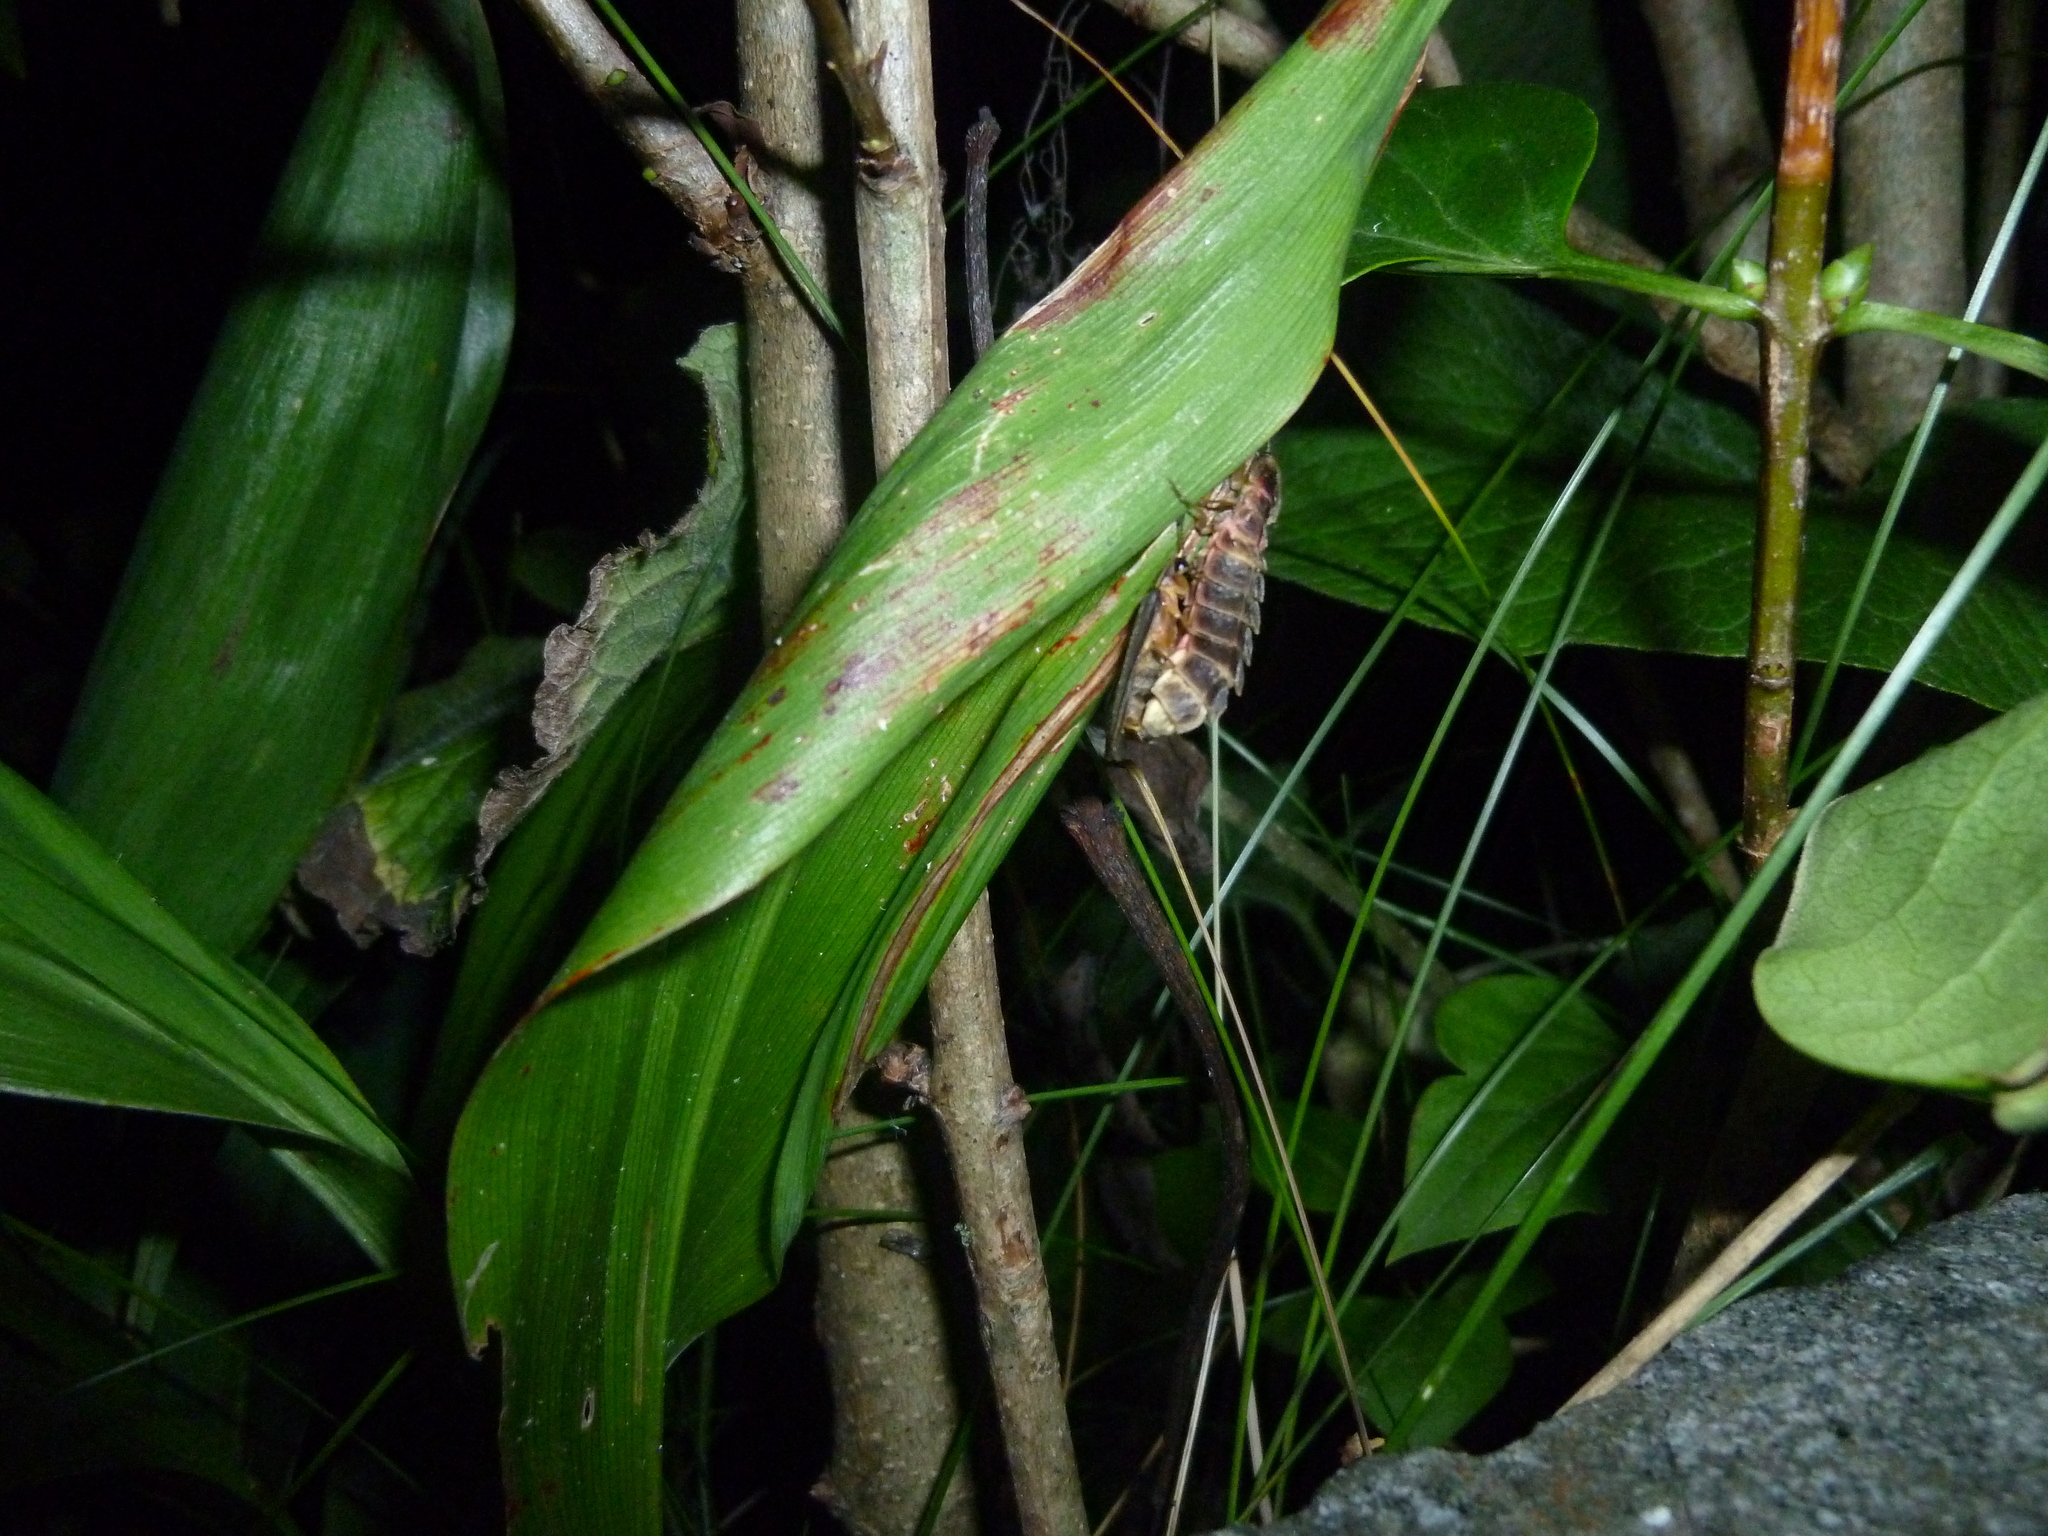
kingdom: Animalia
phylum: Arthropoda
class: Insecta
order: Coleoptera
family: Lampyridae
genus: Lampyris
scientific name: Lampyris noctiluca
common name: Glow-worm
